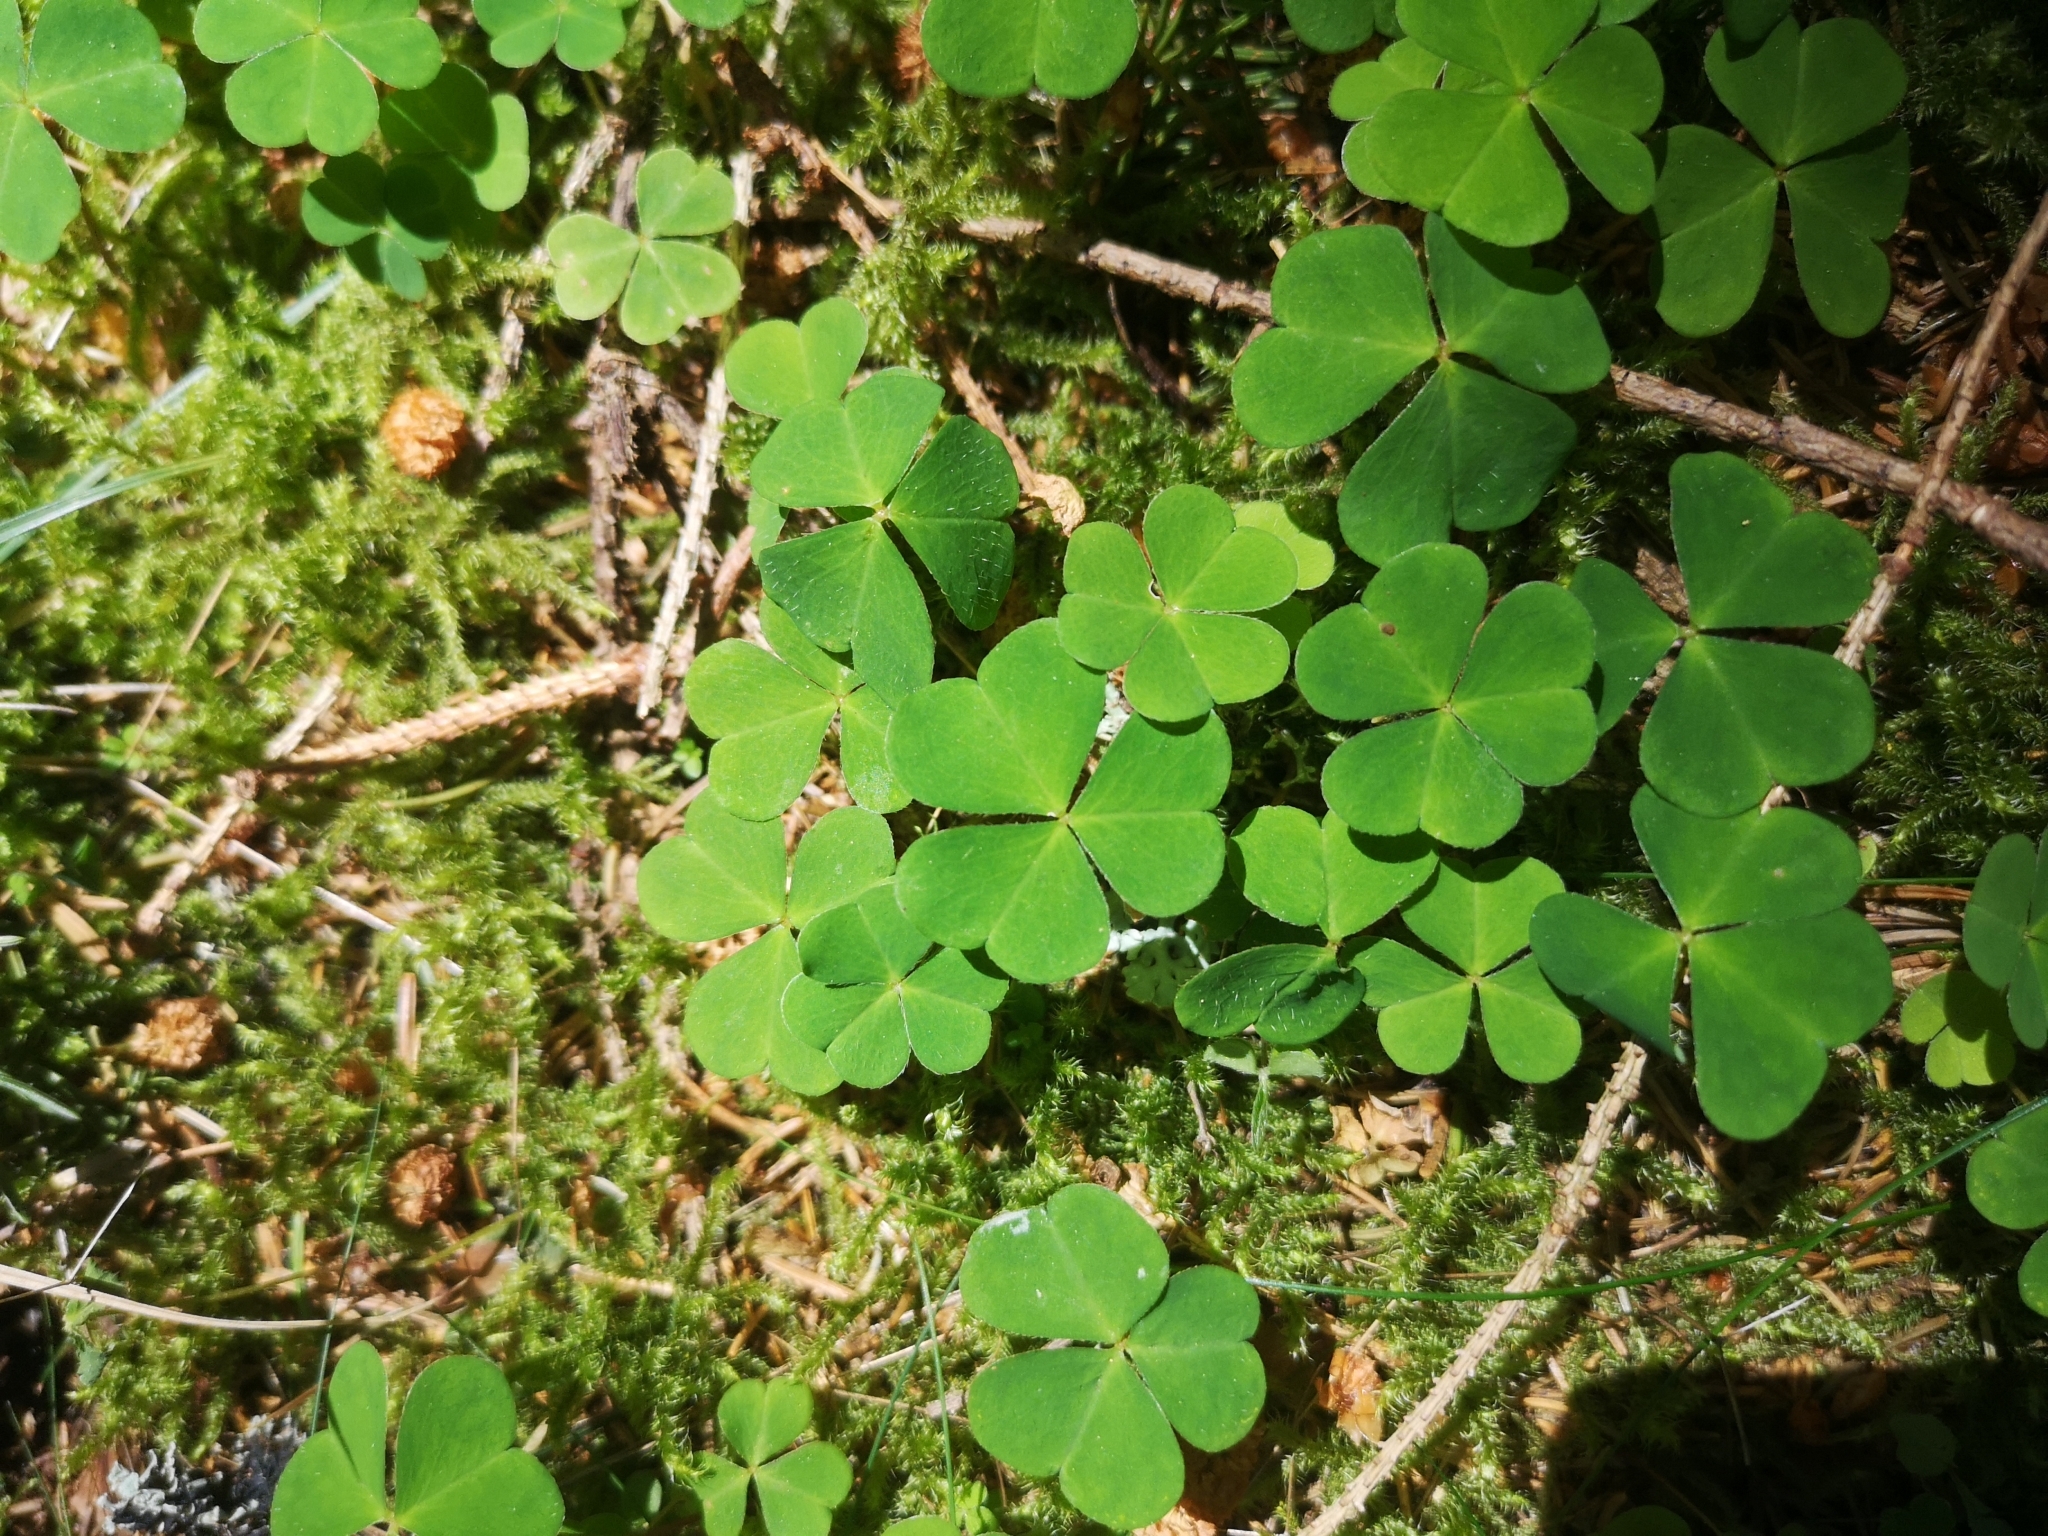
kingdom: Plantae
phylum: Tracheophyta
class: Magnoliopsida
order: Oxalidales
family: Oxalidaceae
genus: Oxalis
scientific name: Oxalis acetosella
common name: Wood-sorrel
